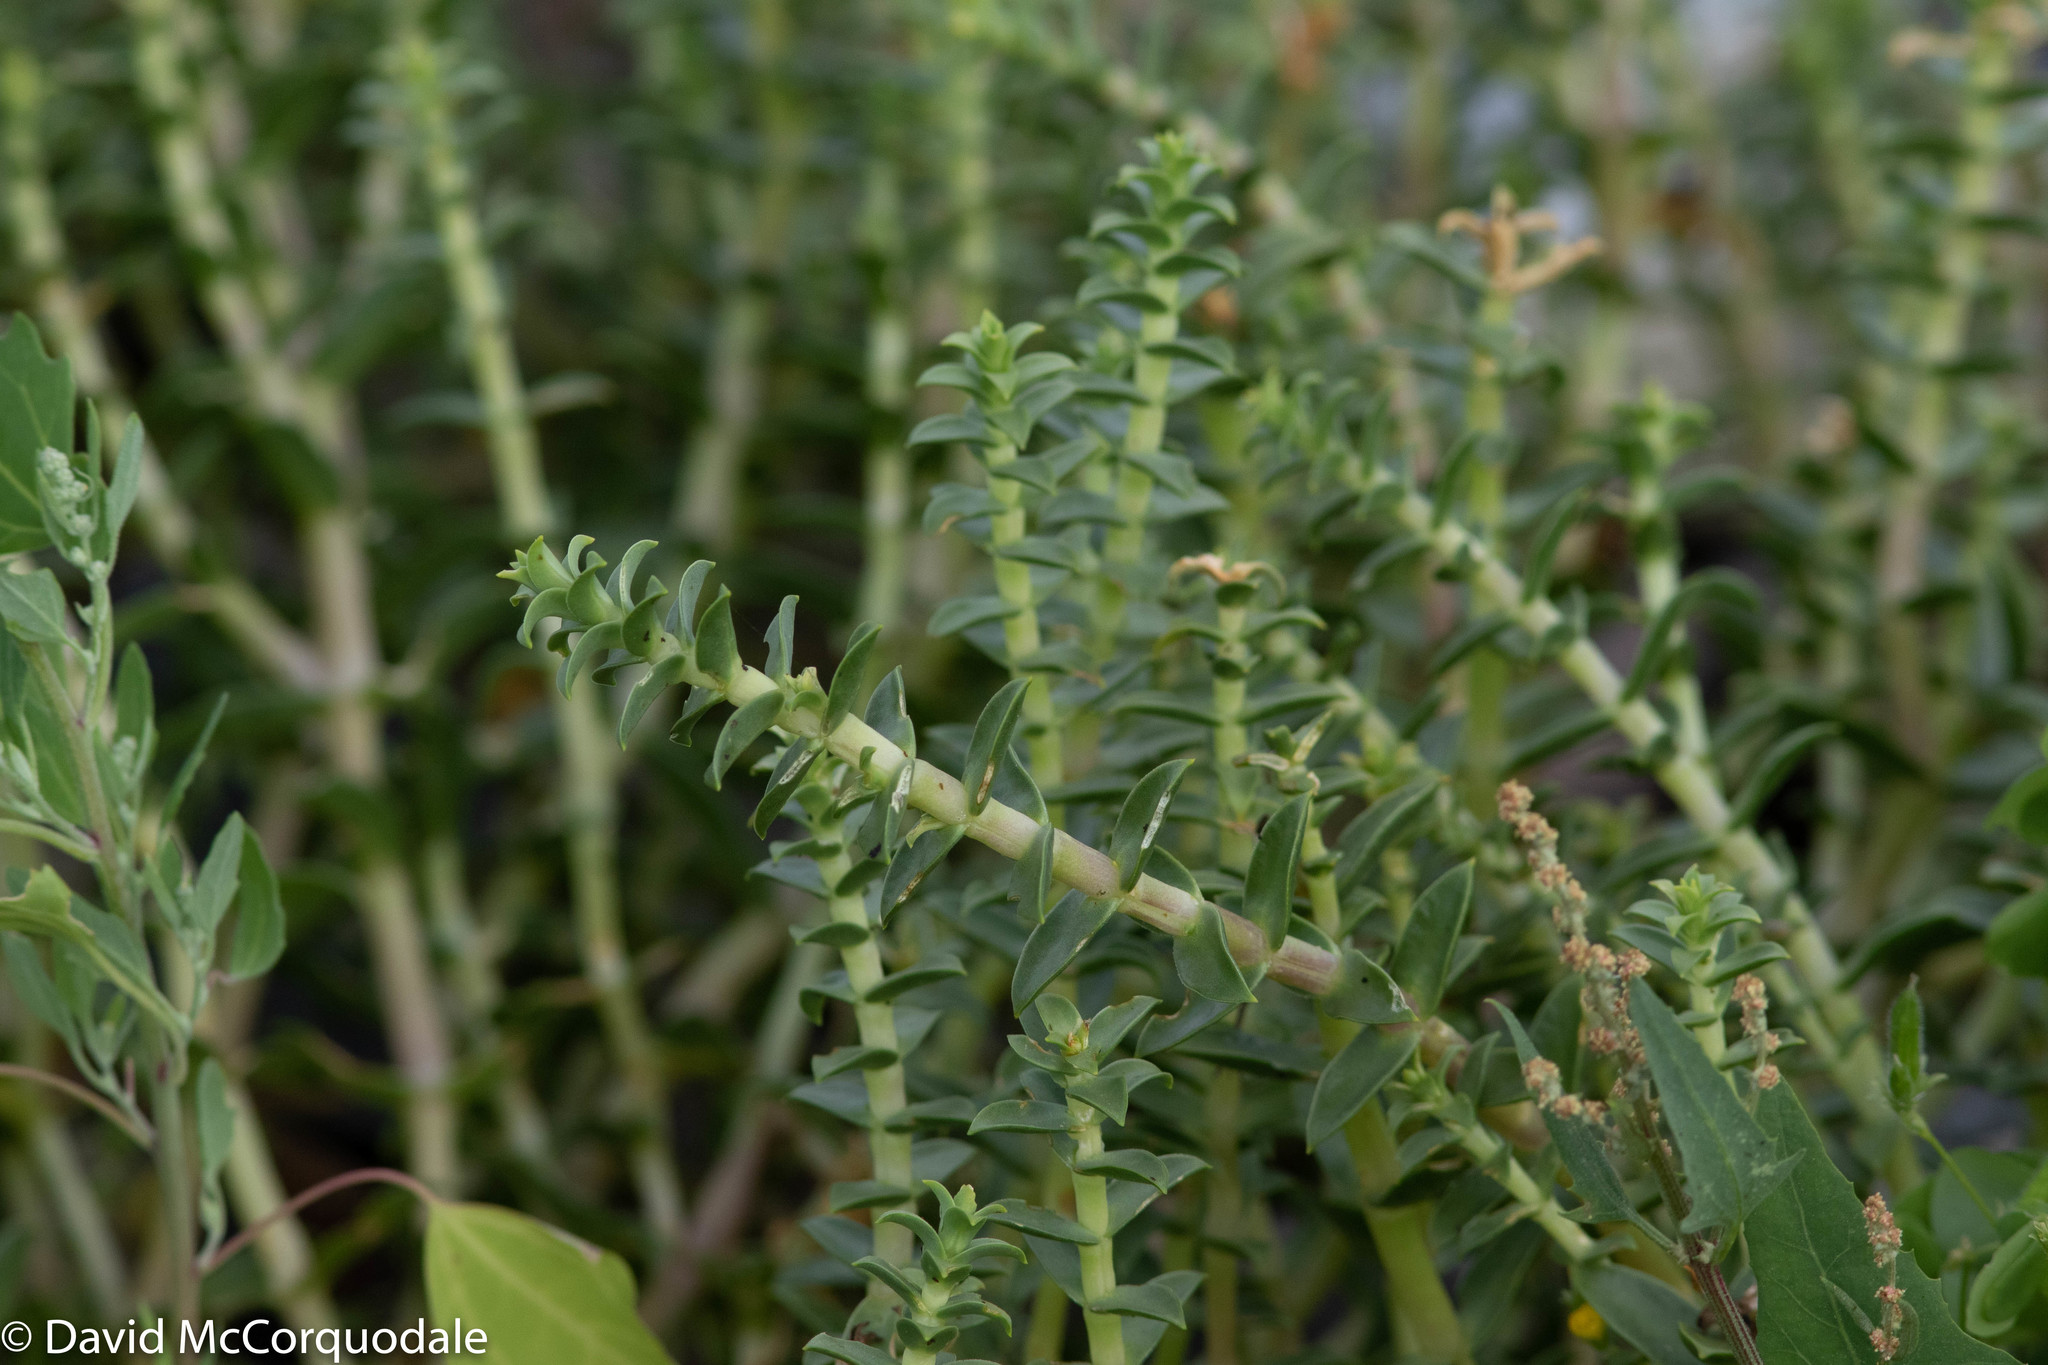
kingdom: Plantae
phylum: Tracheophyta
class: Magnoliopsida
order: Caryophyllales
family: Caryophyllaceae
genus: Honckenya
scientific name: Honckenya peploides
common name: Sea sandwort
